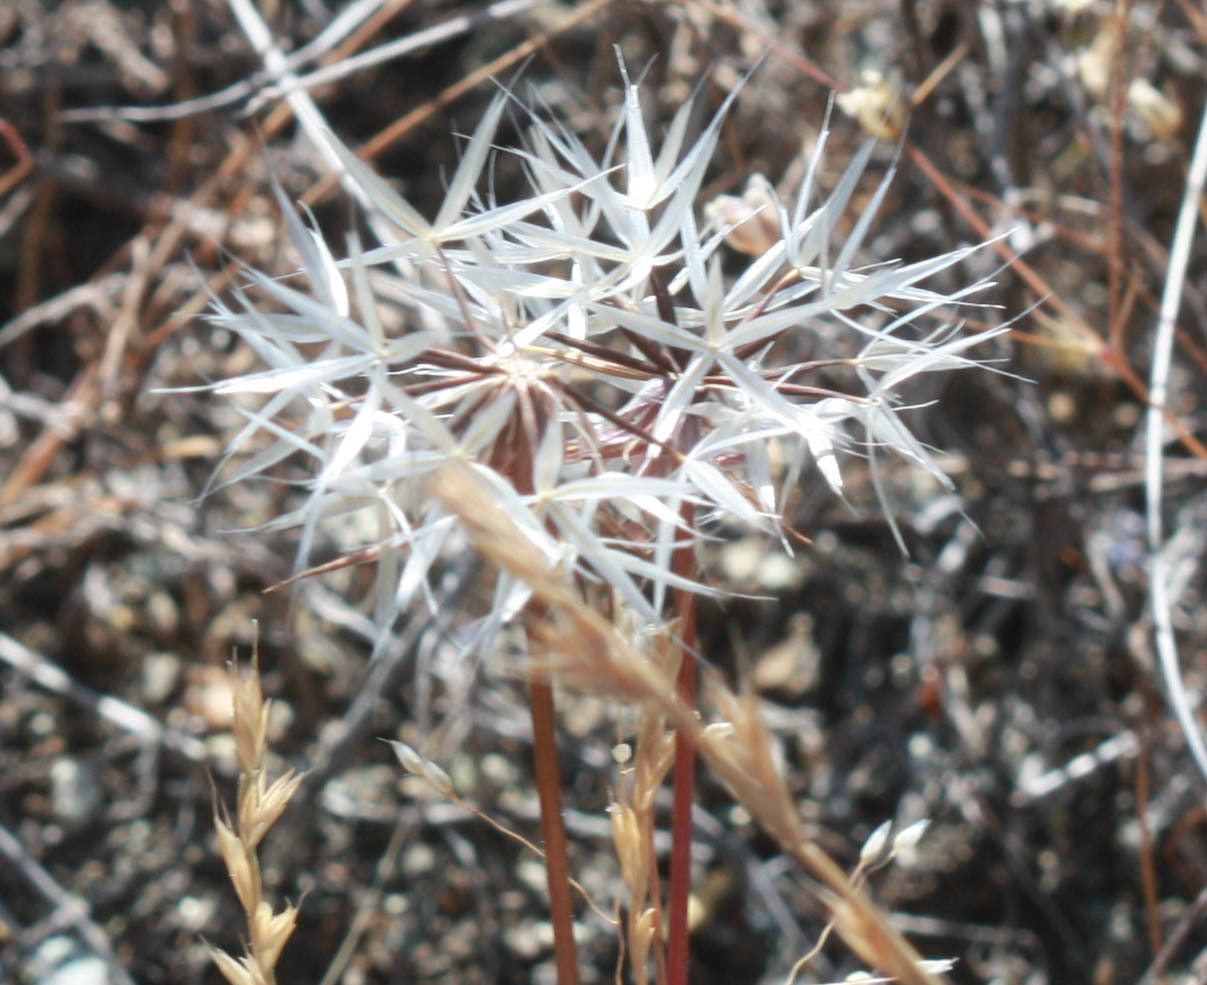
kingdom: Plantae
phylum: Tracheophyta
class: Magnoliopsida
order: Asterales
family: Asteraceae
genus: Microseris
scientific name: Microseris douglasii
